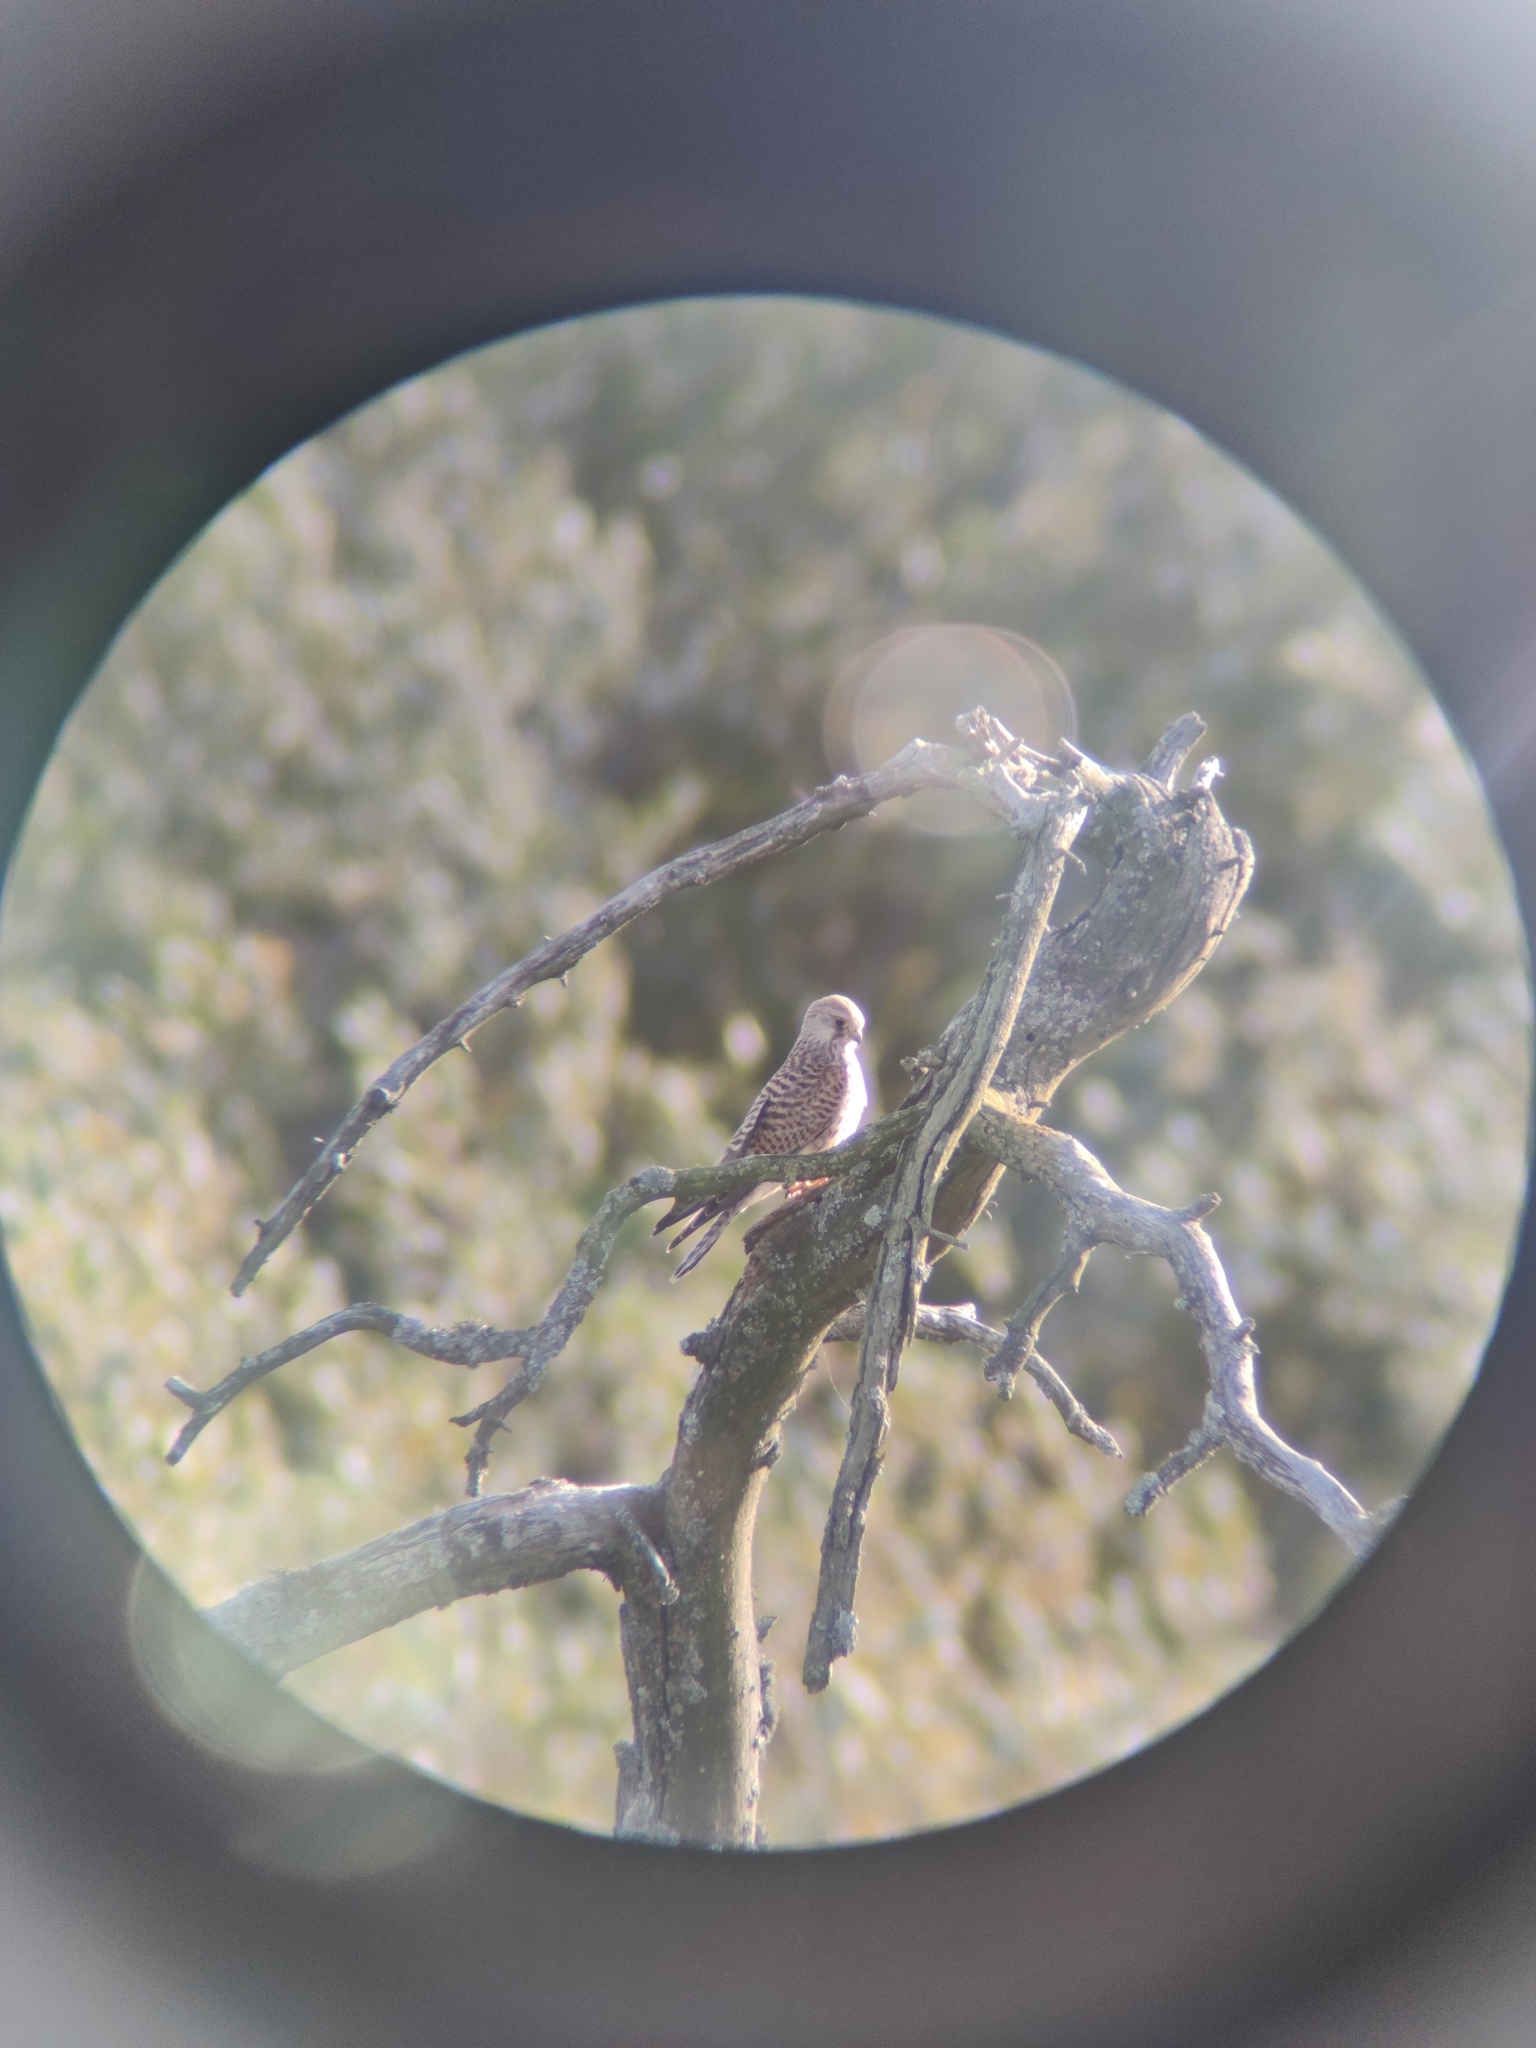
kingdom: Animalia
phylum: Chordata
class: Aves
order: Falconiformes
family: Falconidae
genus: Falco
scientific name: Falco tinnunculus
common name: Common kestrel
